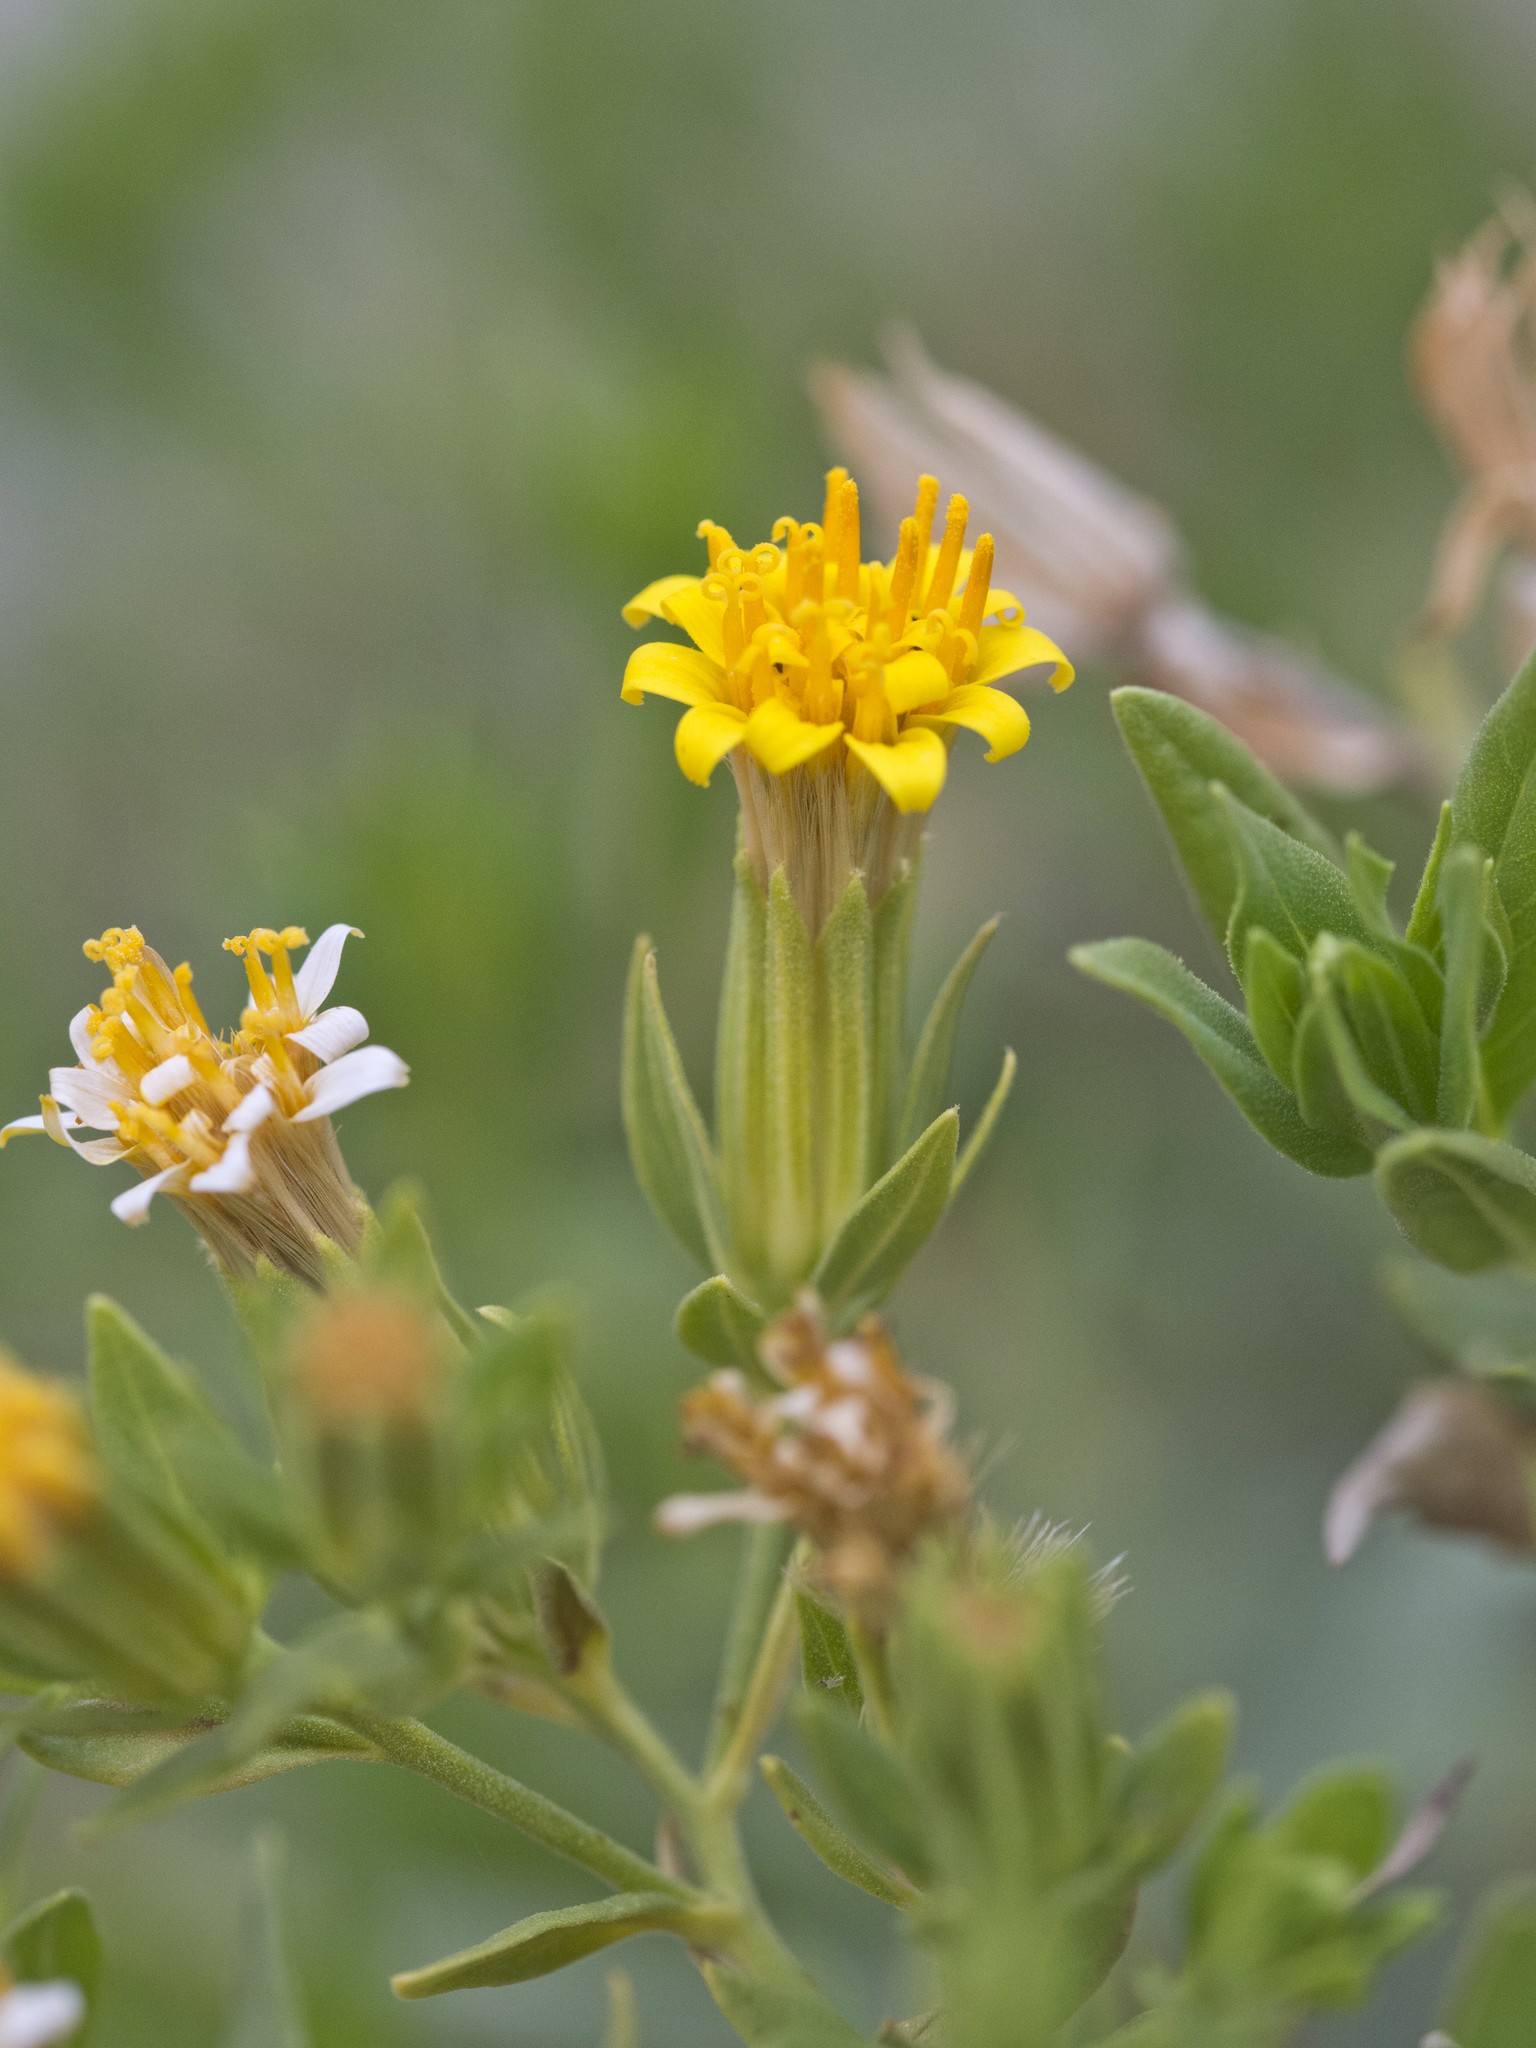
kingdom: Plantae
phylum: Tracheophyta
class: Magnoliopsida
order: Asterales
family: Asteraceae
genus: Trixis
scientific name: Trixis californica
